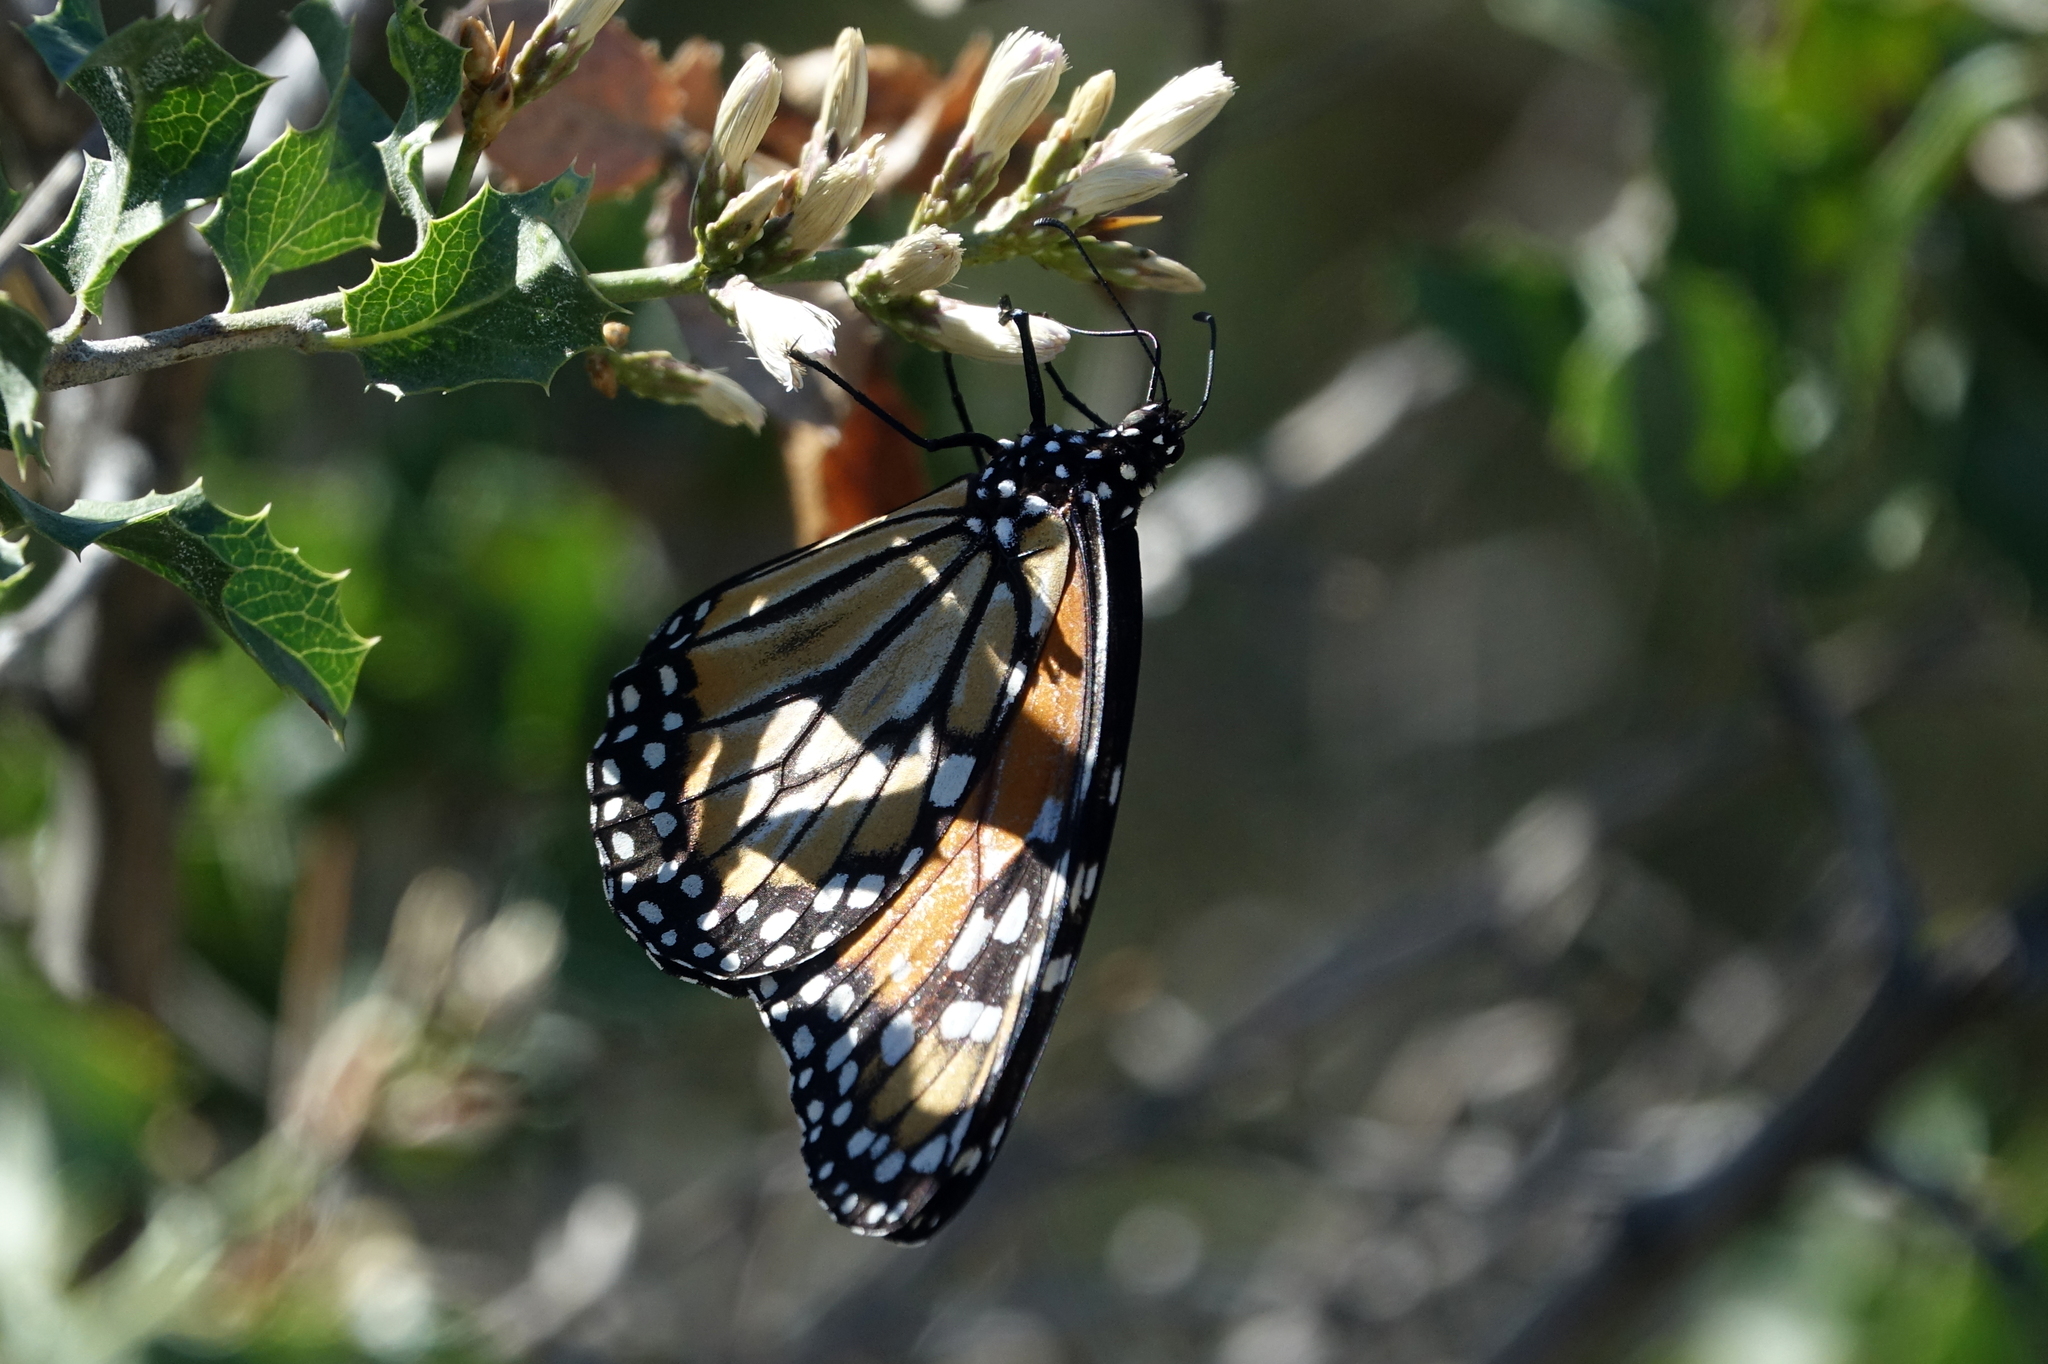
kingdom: Animalia
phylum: Arthropoda
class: Insecta
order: Lepidoptera
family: Nymphalidae
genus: Danaus
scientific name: Danaus erippus
